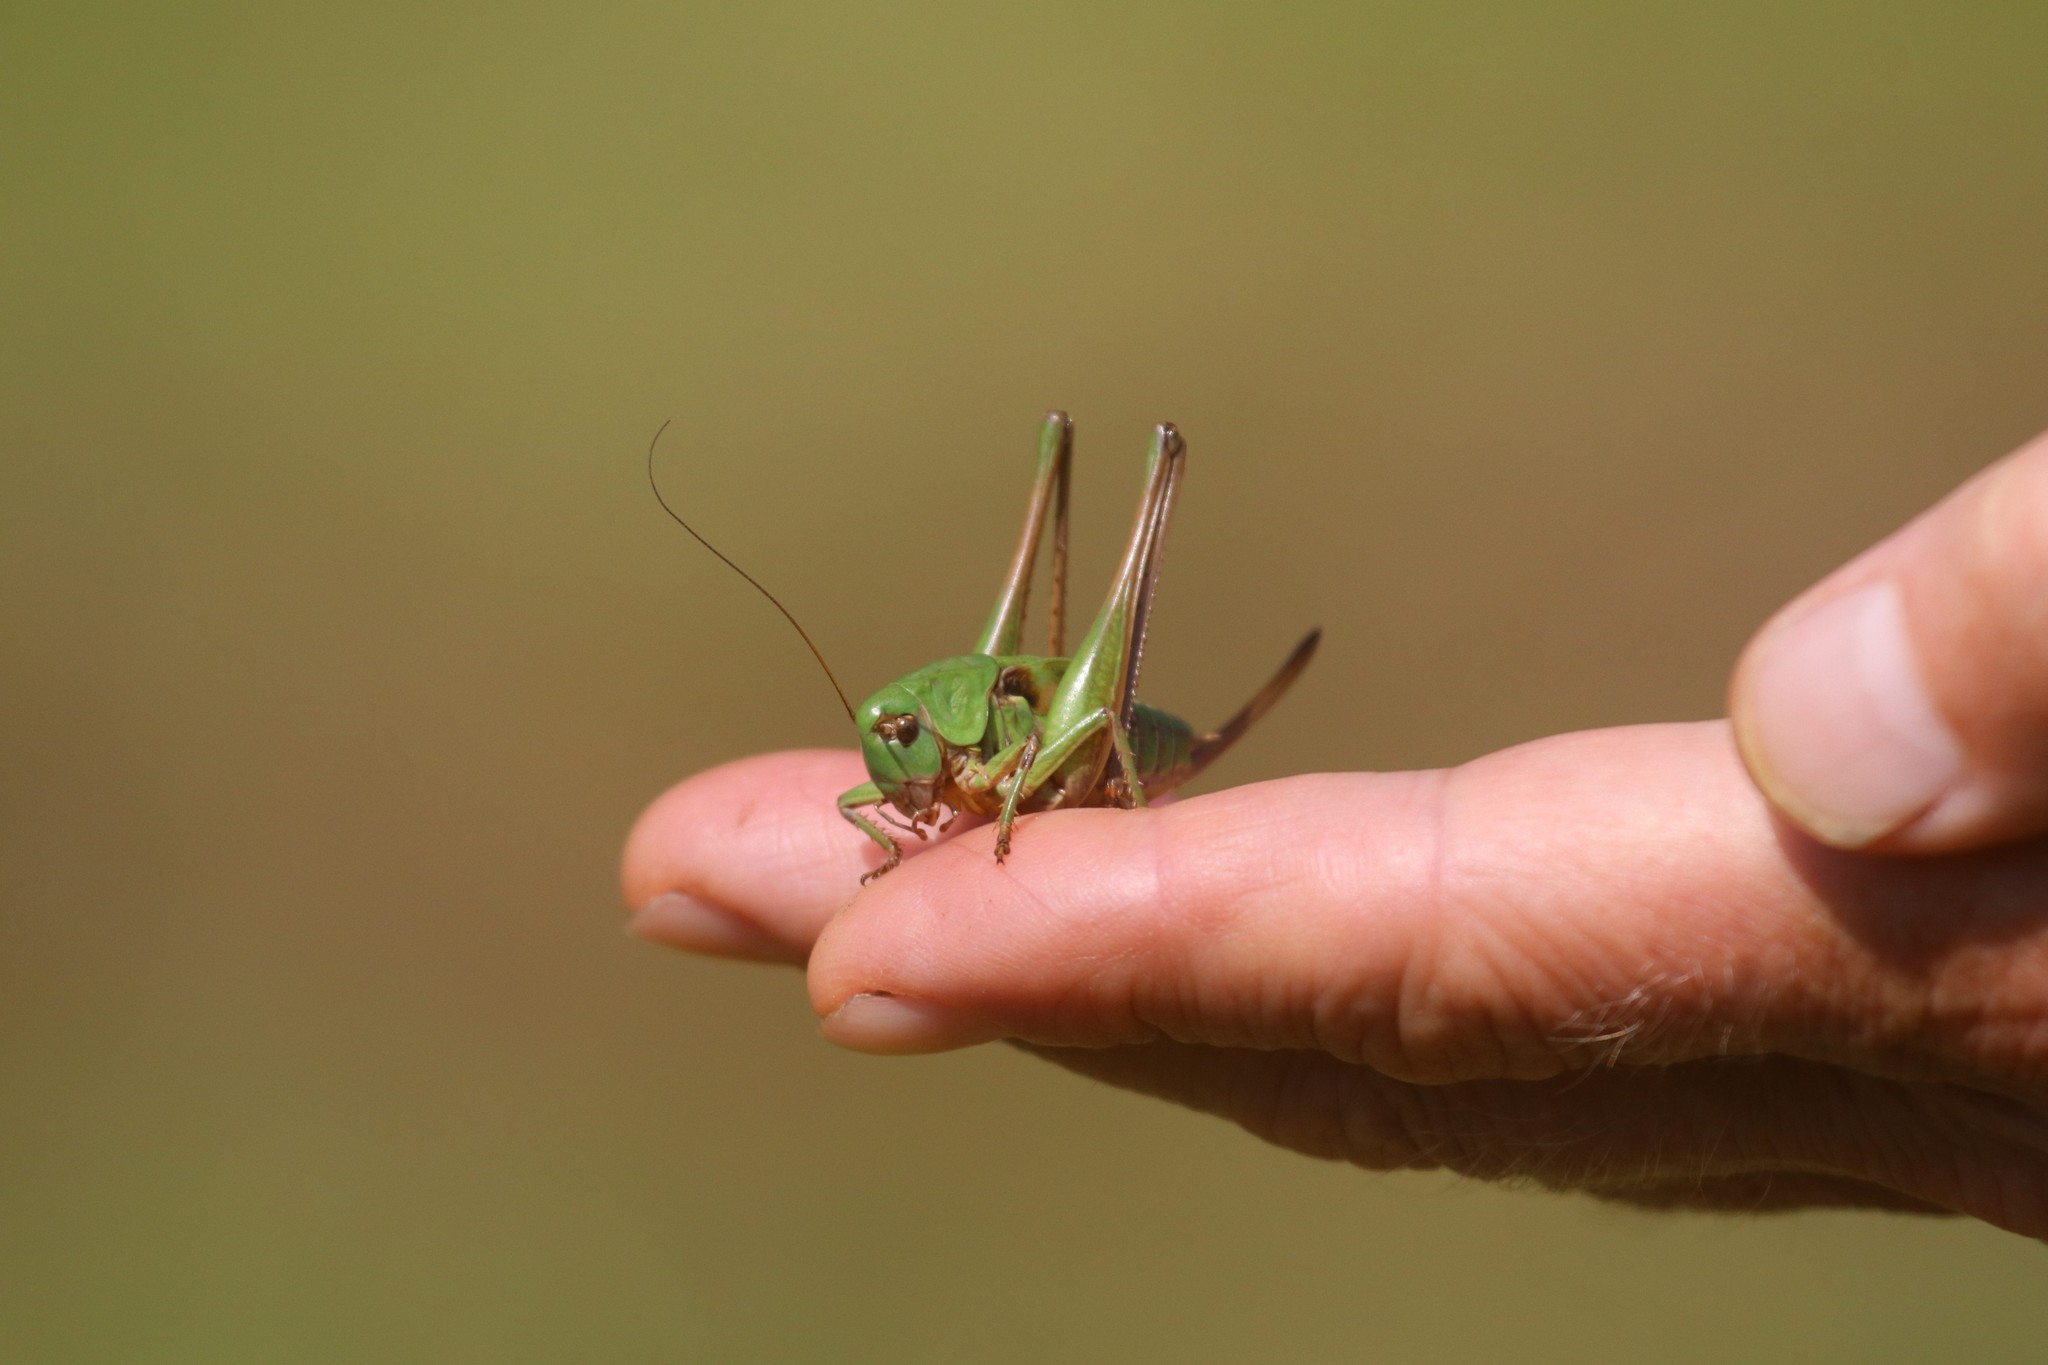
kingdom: Animalia
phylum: Arthropoda
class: Insecta
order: Orthoptera
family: Tettigoniidae
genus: Decticus
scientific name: Decticus verrucivorus
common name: Wart-biter
